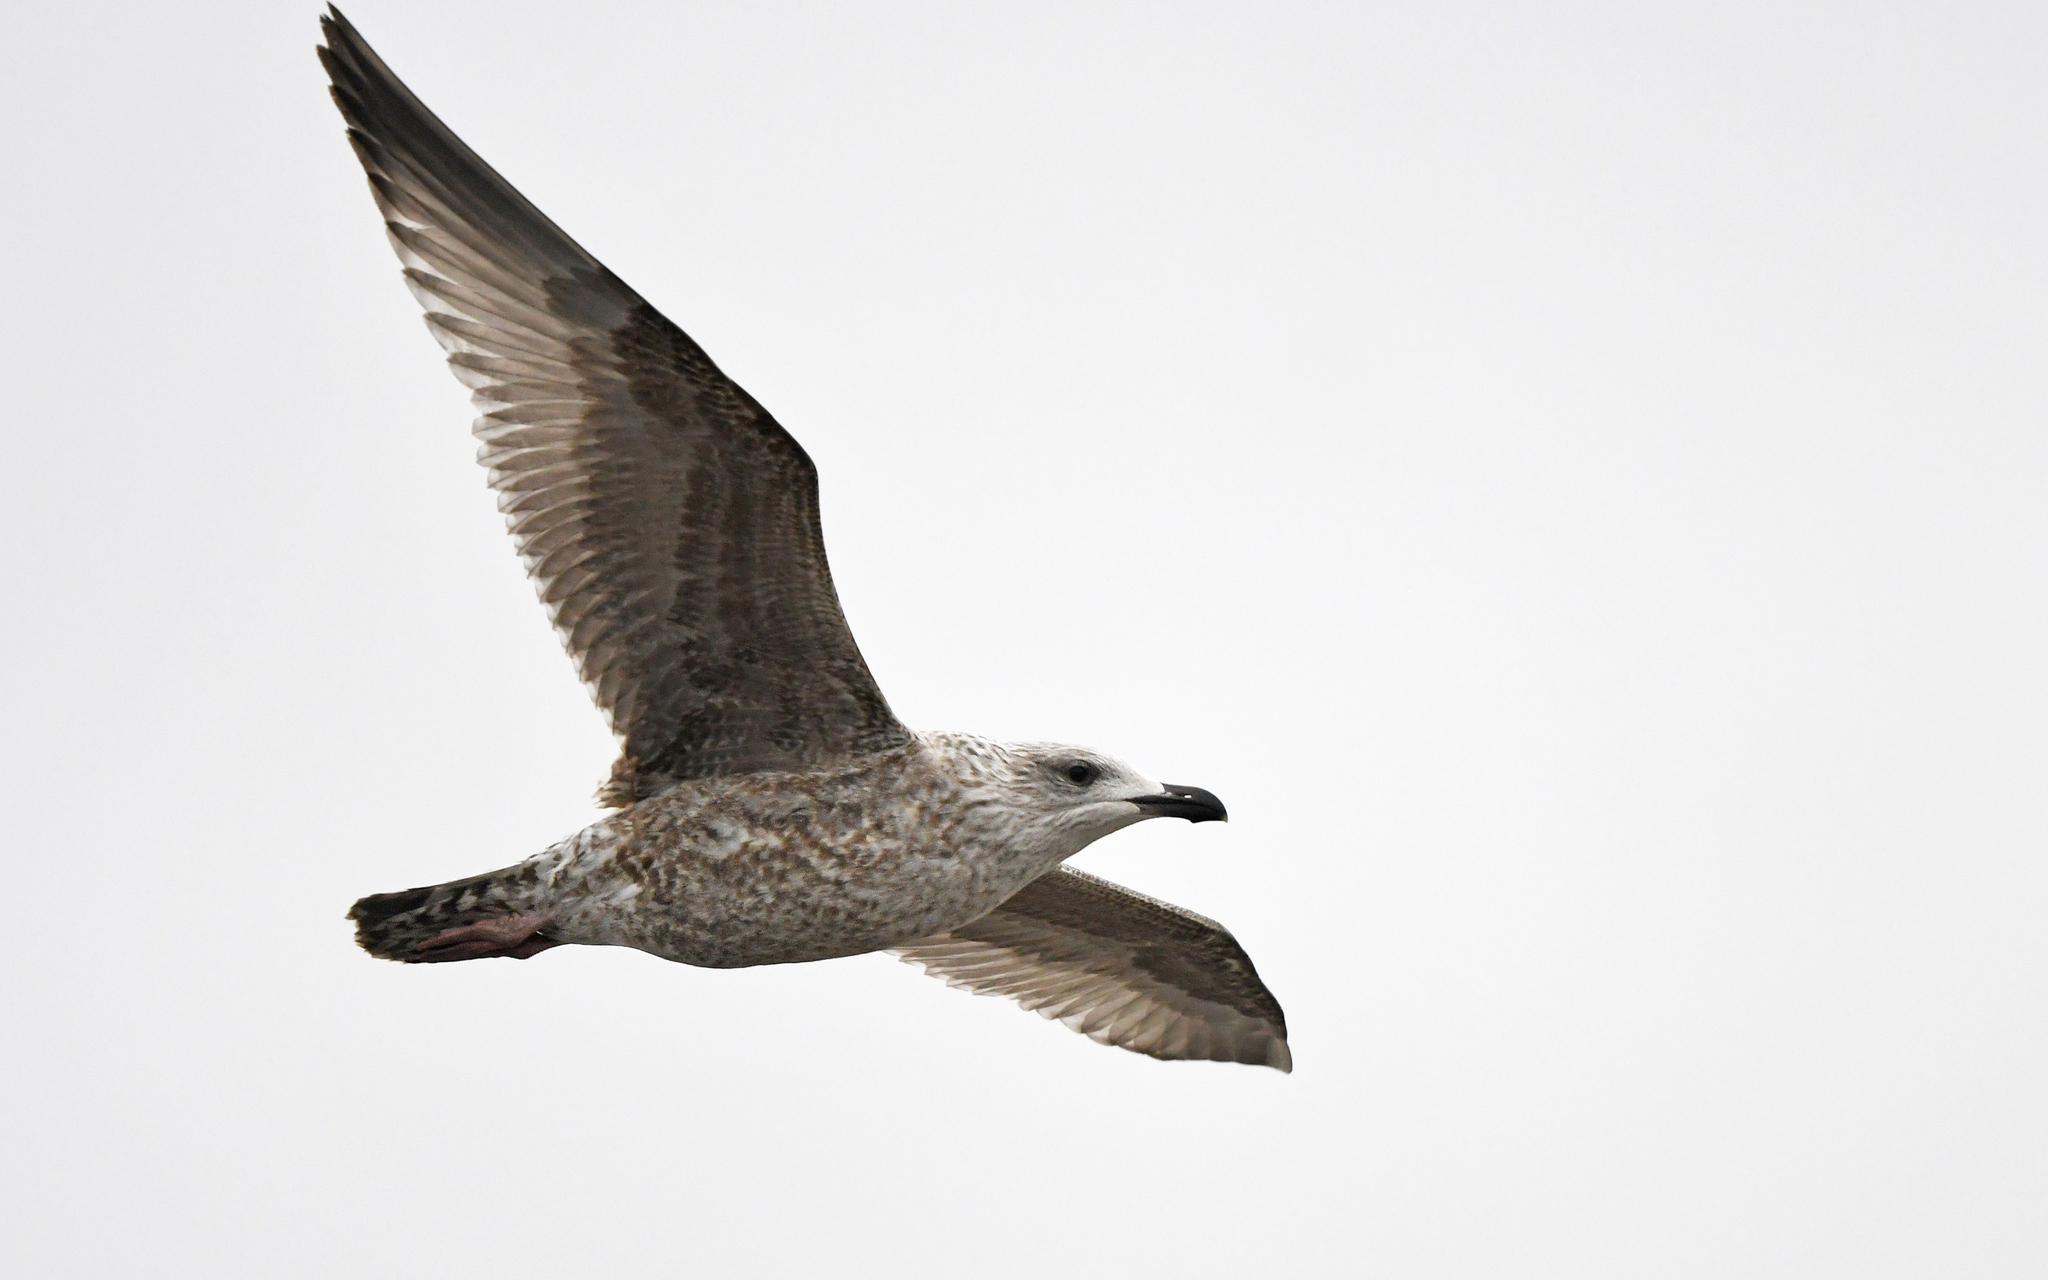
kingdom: Animalia
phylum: Chordata
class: Aves
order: Charadriiformes
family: Laridae
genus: Larus
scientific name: Larus argentatus
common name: Herring gull
